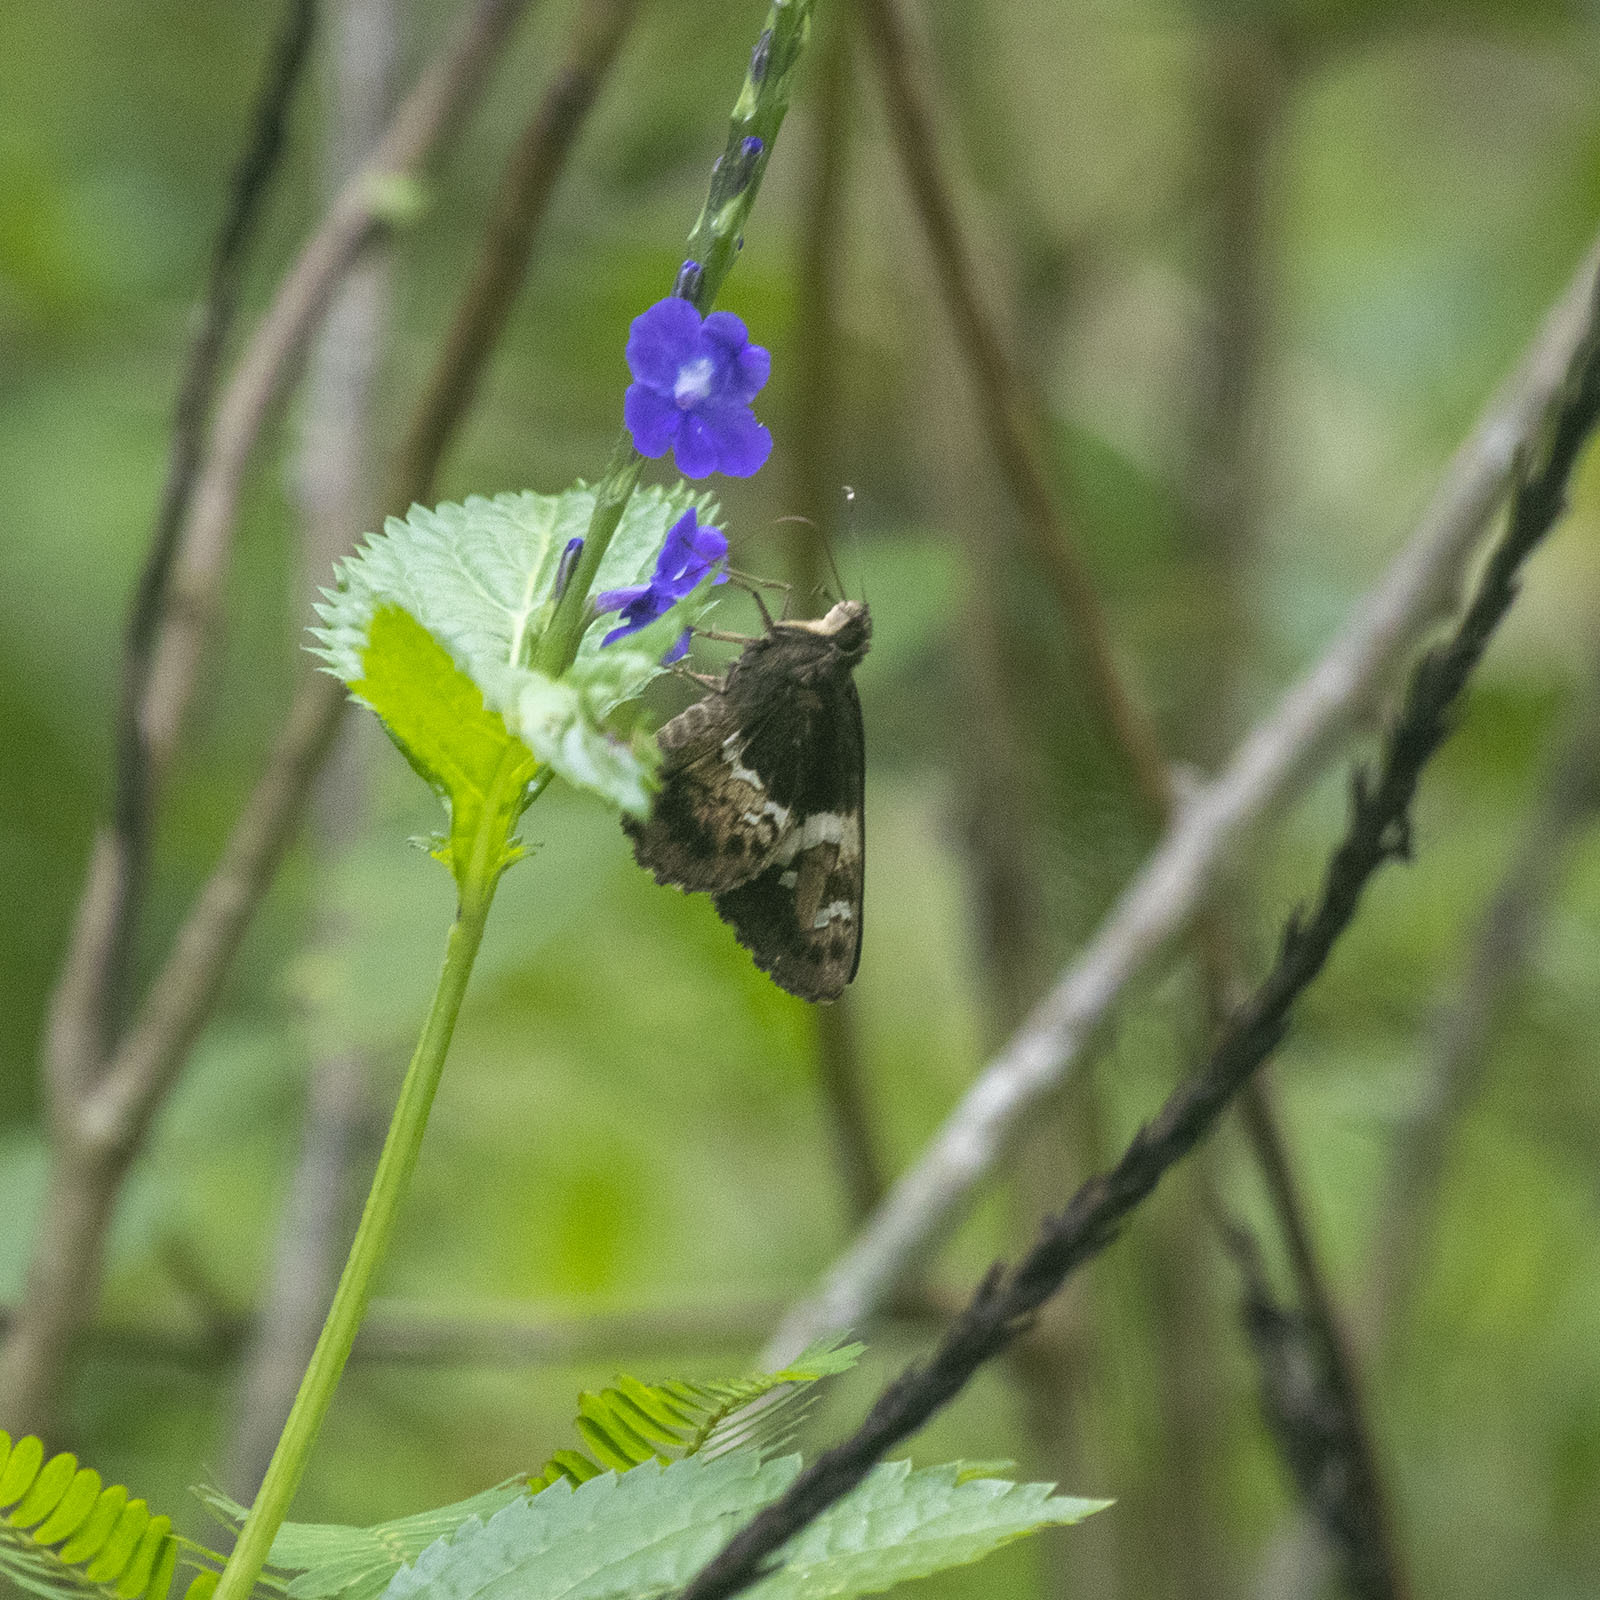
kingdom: Animalia
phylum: Arthropoda
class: Insecta
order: Lepidoptera
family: Hesperiidae
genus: Hyarotis
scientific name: Hyarotis adrastus
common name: Tree flitter
